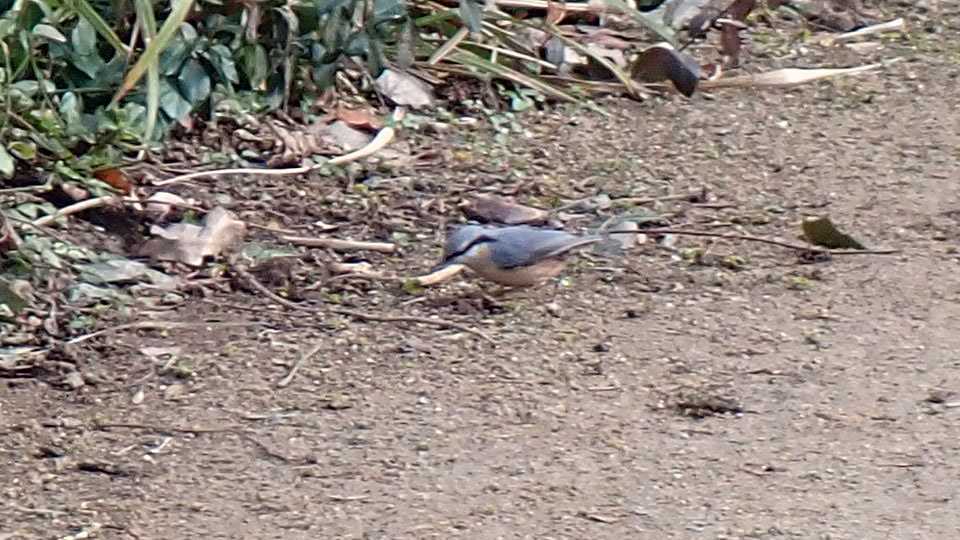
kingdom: Animalia
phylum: Chordata
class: Aves
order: Passeriformes
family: Sittidae
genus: Sitta
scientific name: Sitta europaea
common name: Eurasian nuthatch
